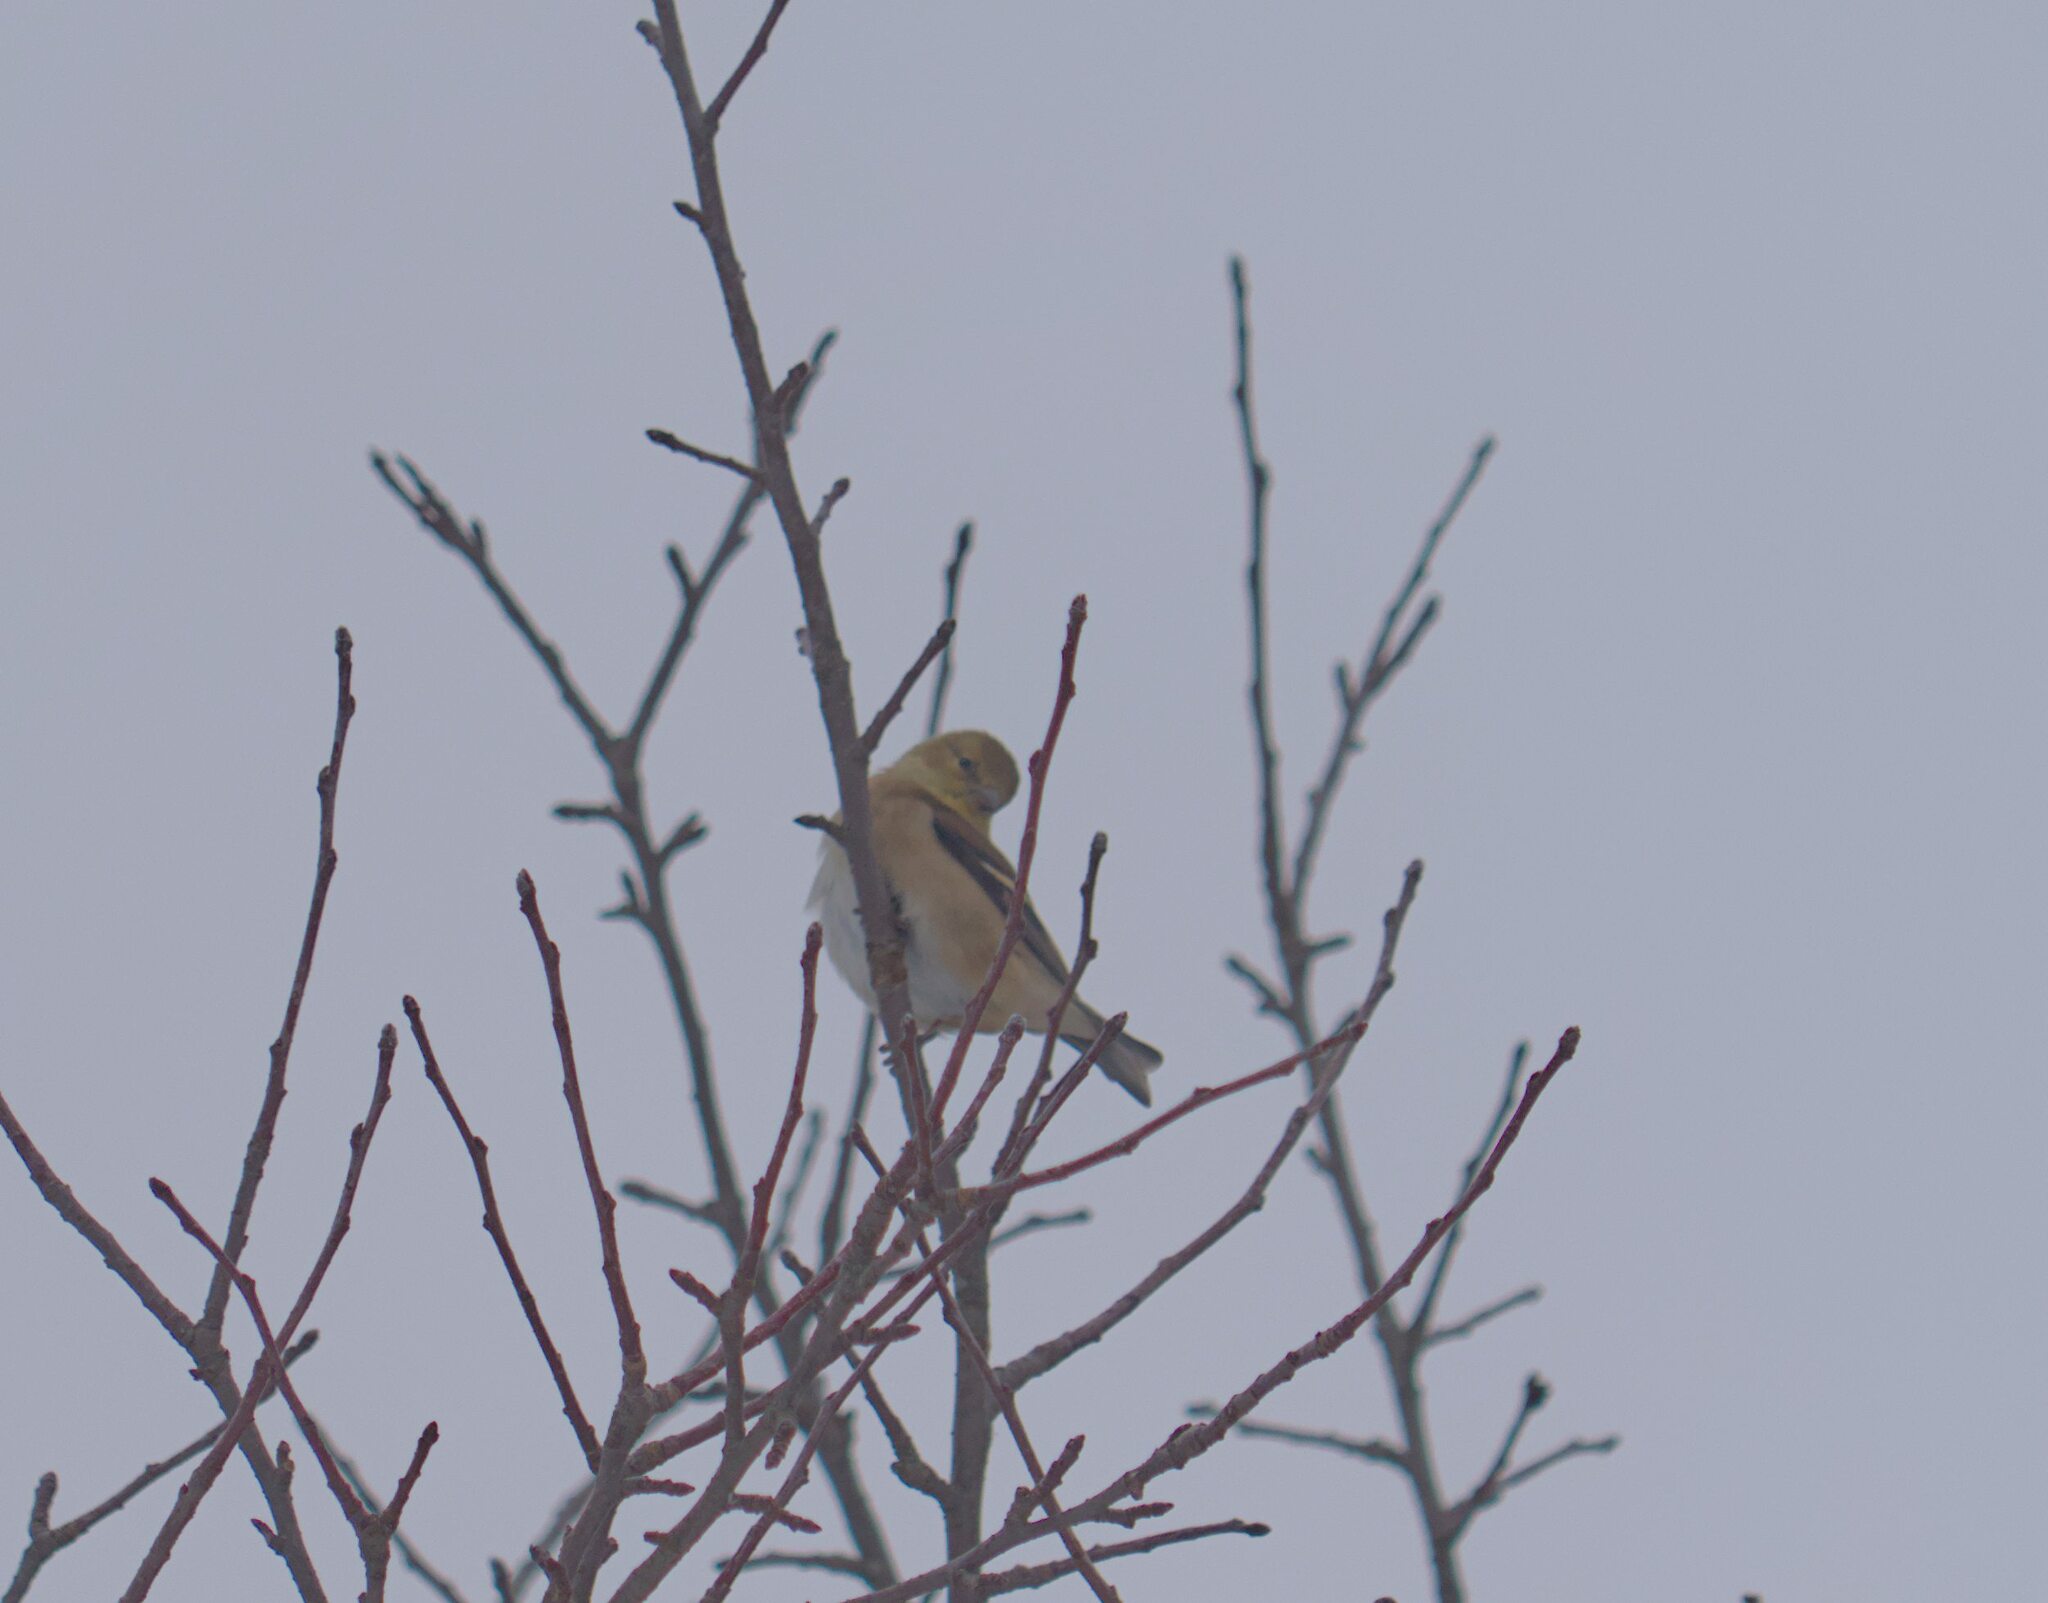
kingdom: Animalia
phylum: Chordata
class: Aves
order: Passeriformes
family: Fringillidae
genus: Spinus
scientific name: Spinus tristis
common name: American goldfinch
